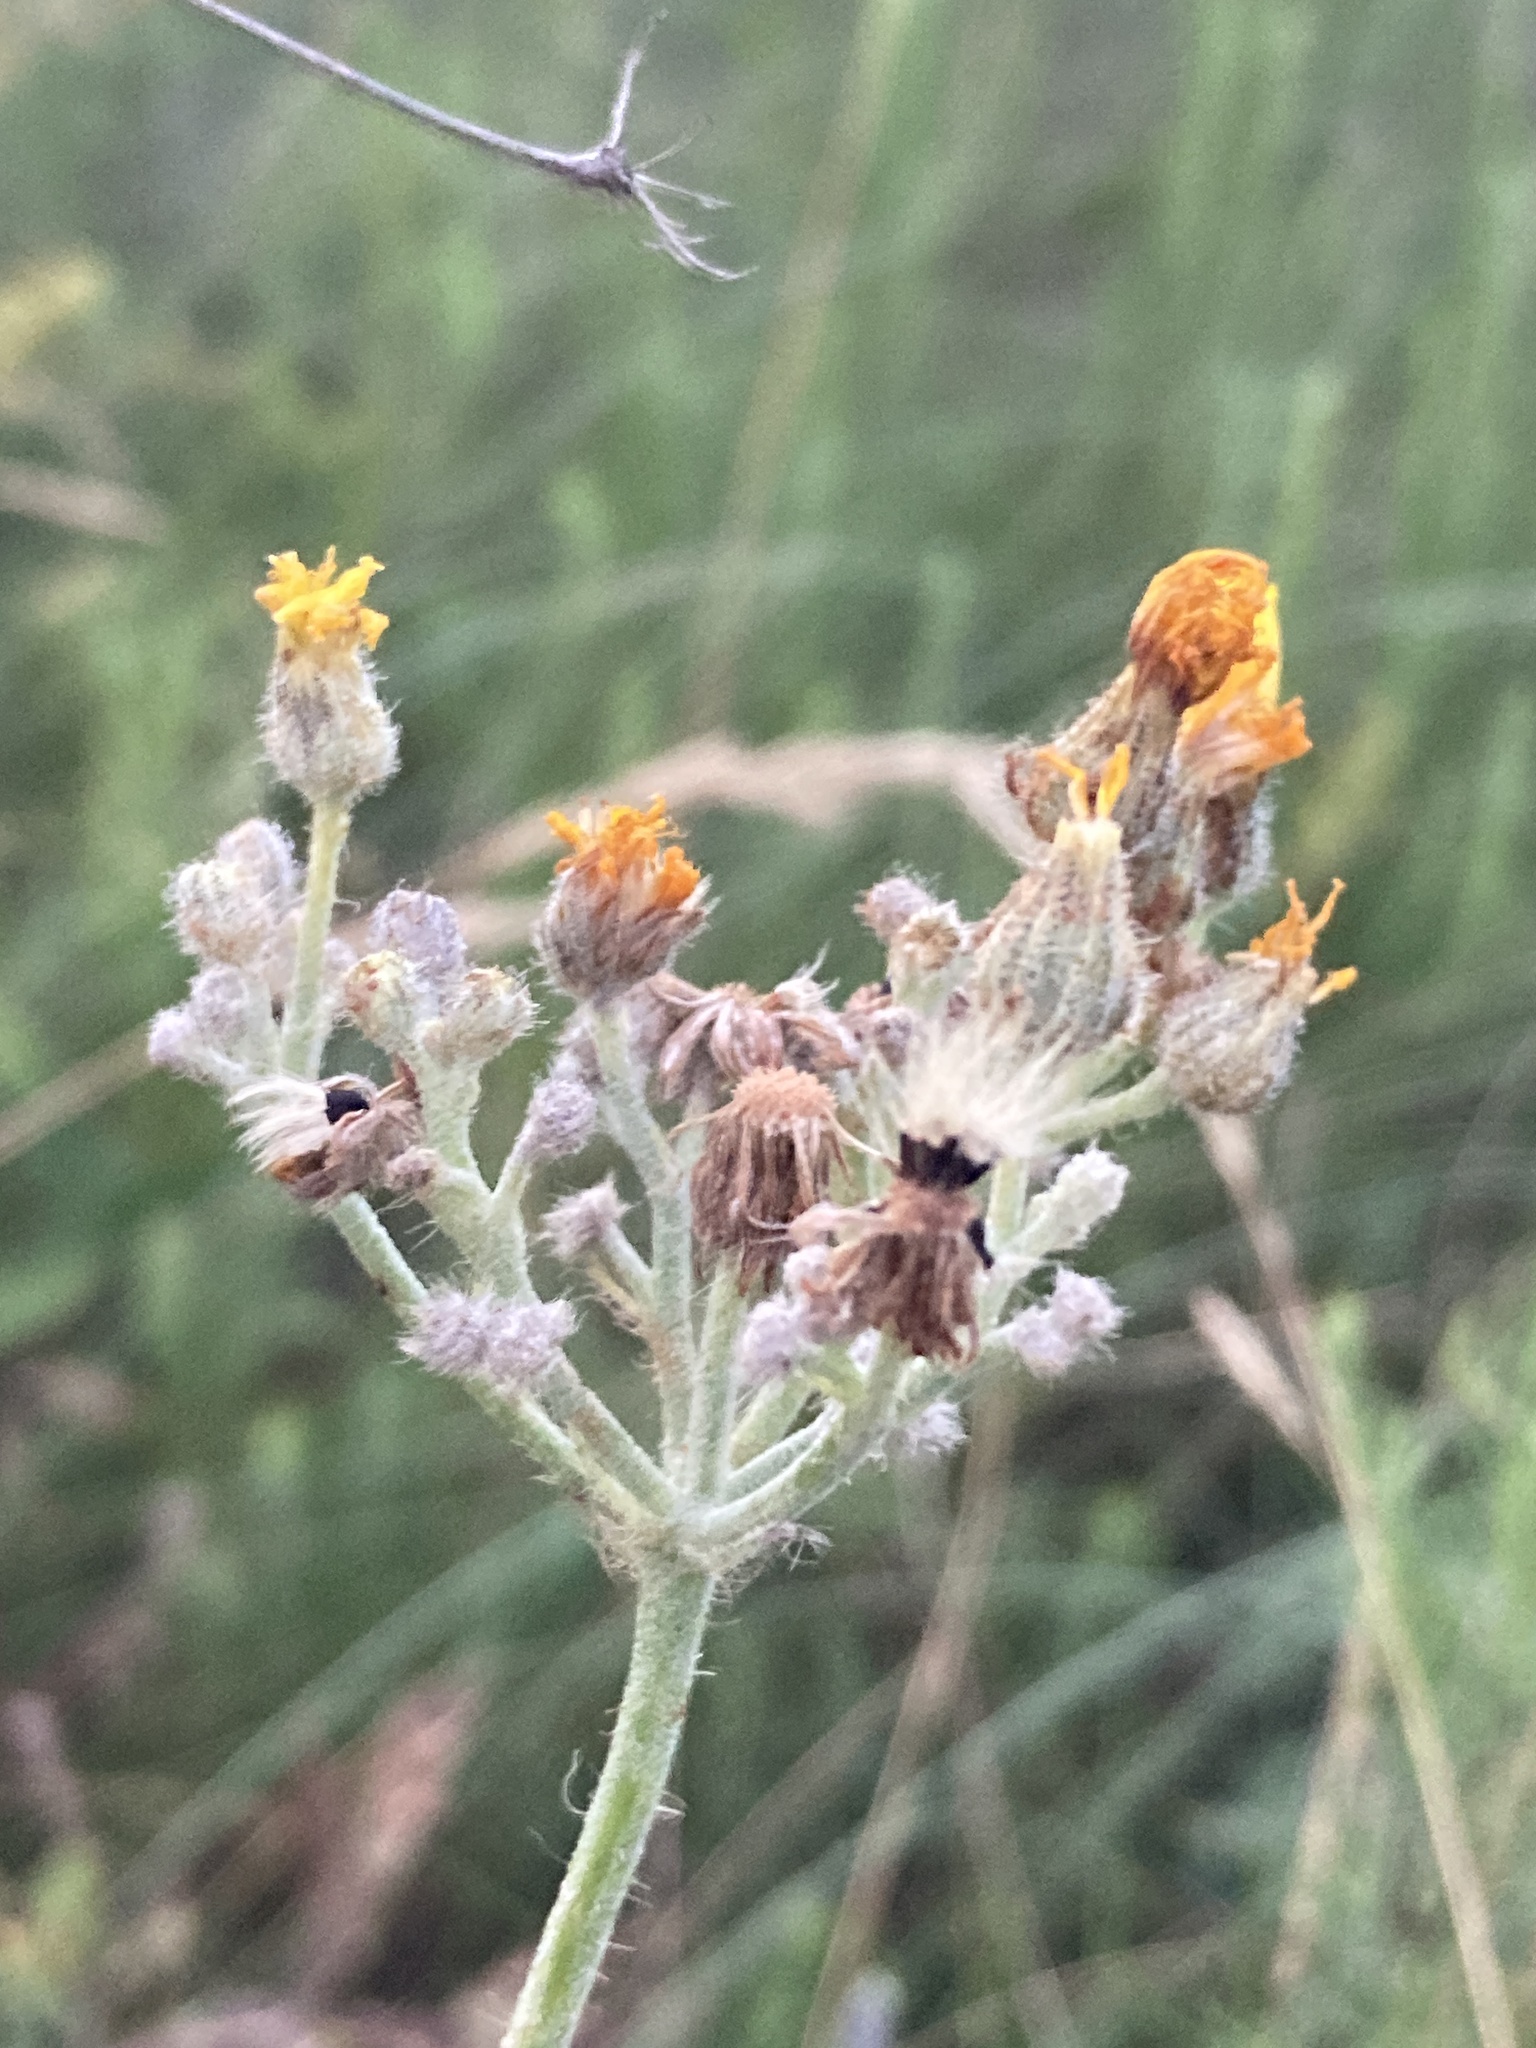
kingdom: Plantae
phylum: Tracheophyta
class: Magnoliopsida
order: Asterales
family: Asteraceae
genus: Pilosella
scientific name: Pilosella echioides
